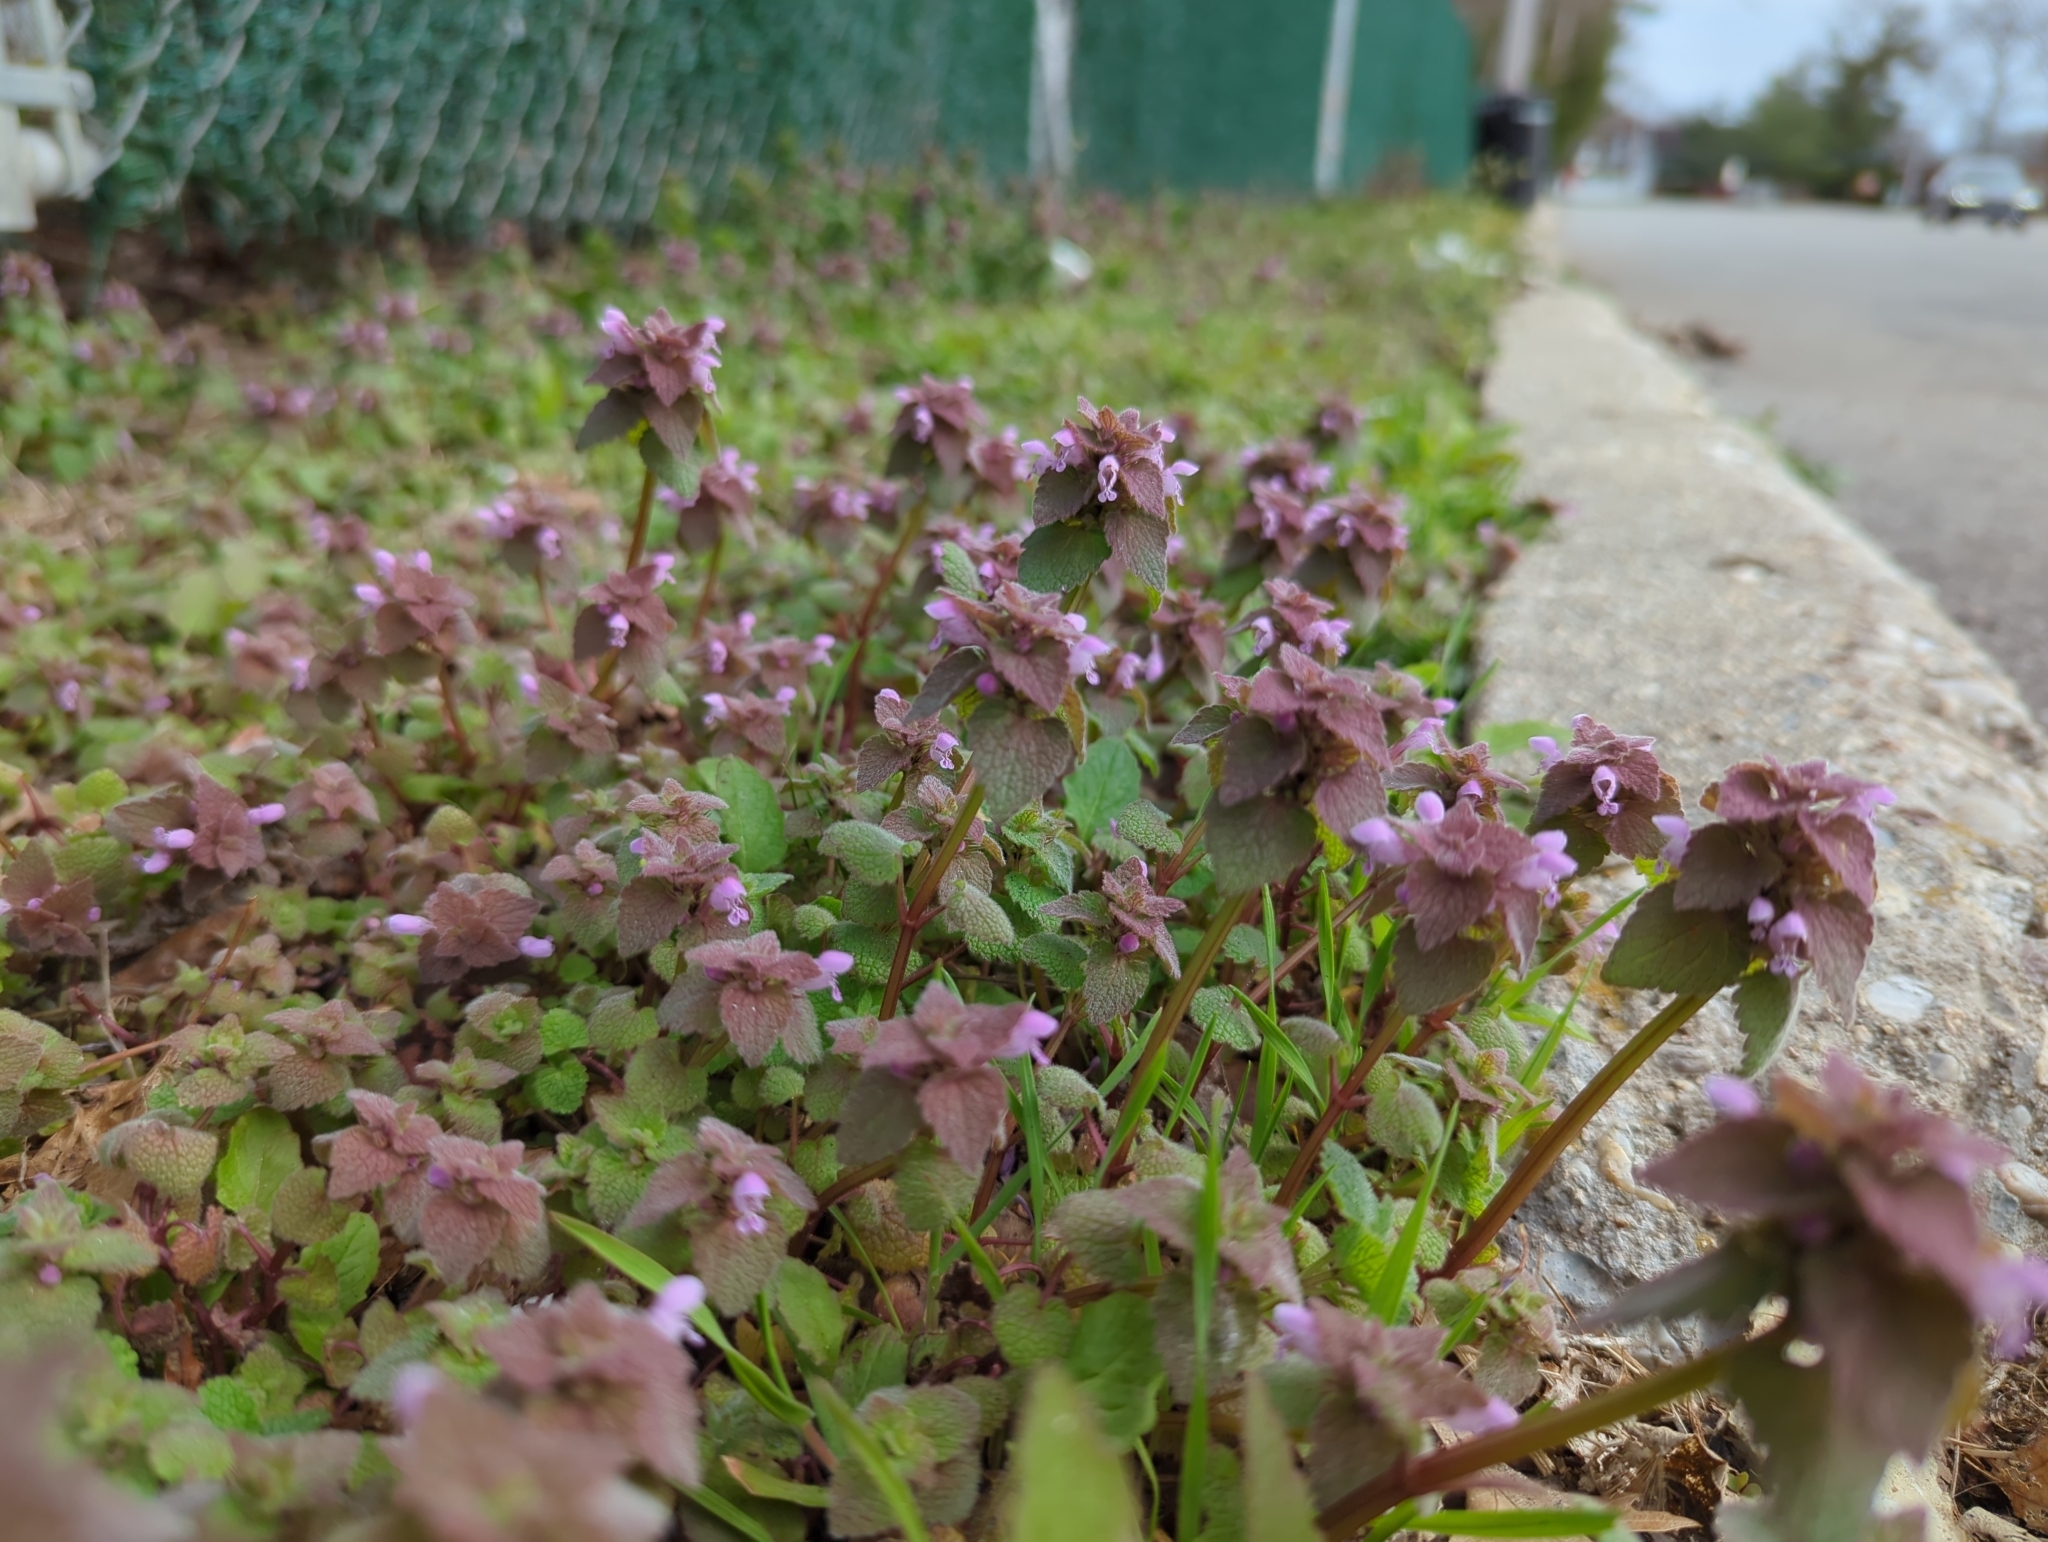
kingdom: Plantae
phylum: Tracheophyta
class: Magnoliopsida
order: Lamiales
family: Lamiaceae
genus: Lamium
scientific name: Lamium purpureum
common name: Red dead-nettle
